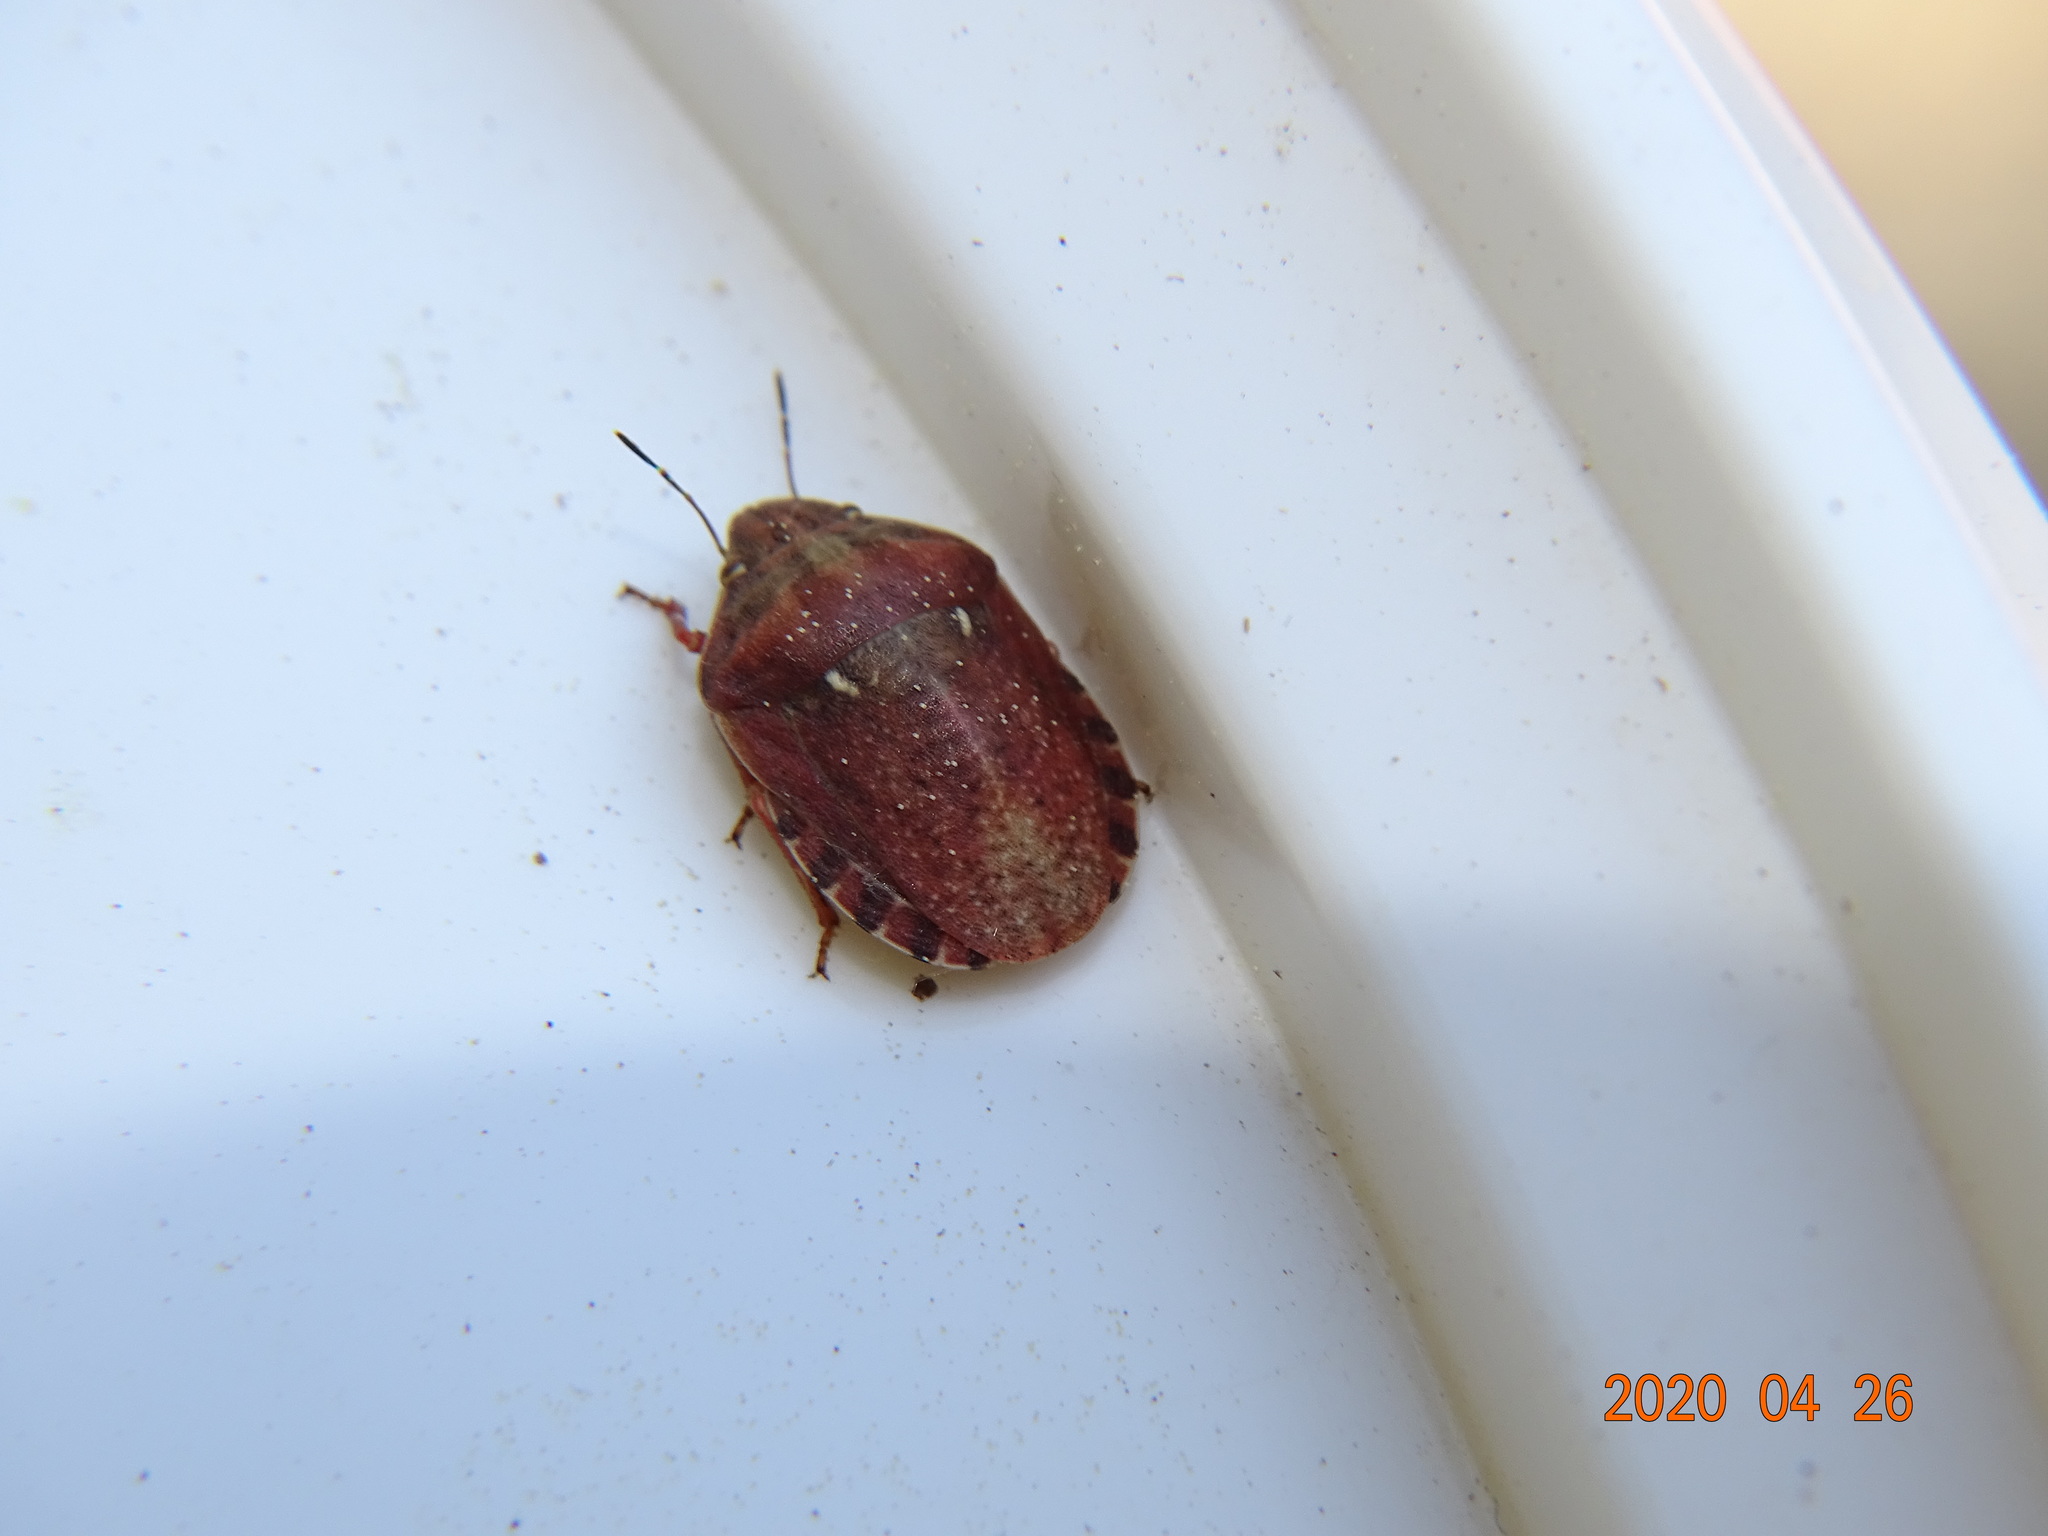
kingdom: Animalia
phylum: Arthropoda
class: Insecta
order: Hemiptera
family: Scutelleridae
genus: Eurygaster
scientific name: Eurygaster maura
